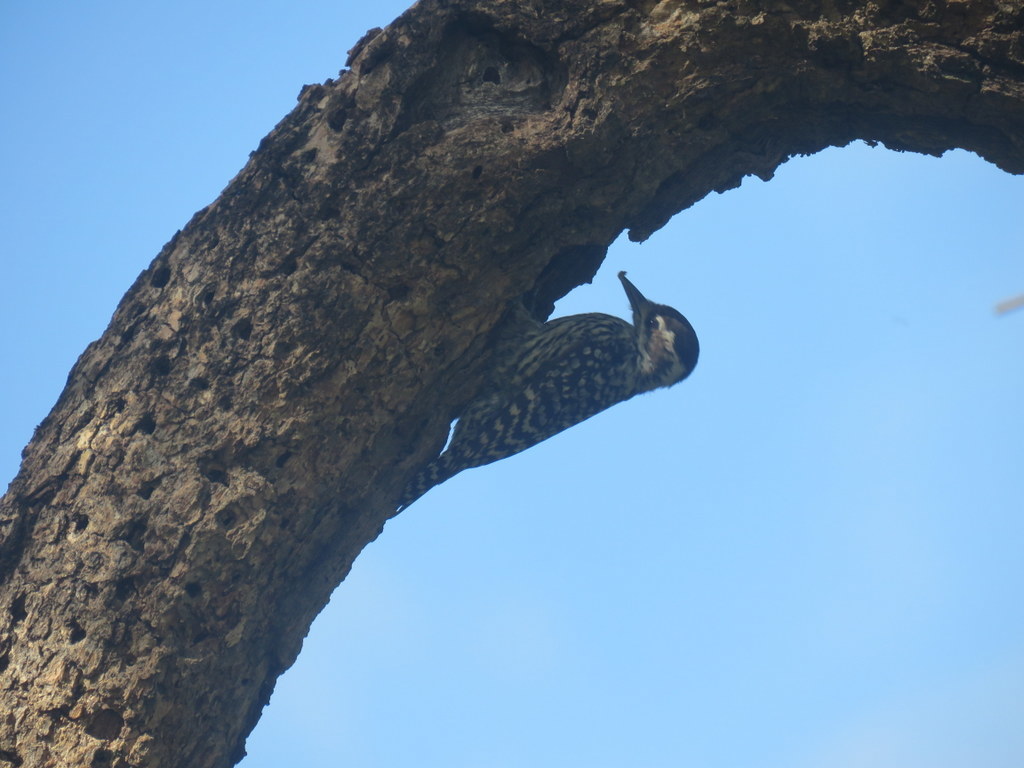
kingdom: Animalia
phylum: Chordata
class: Aves
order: Piciformes
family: Picidae
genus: Veniliornis
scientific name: Veniliornis mixtus
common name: Checkered woodpecker
